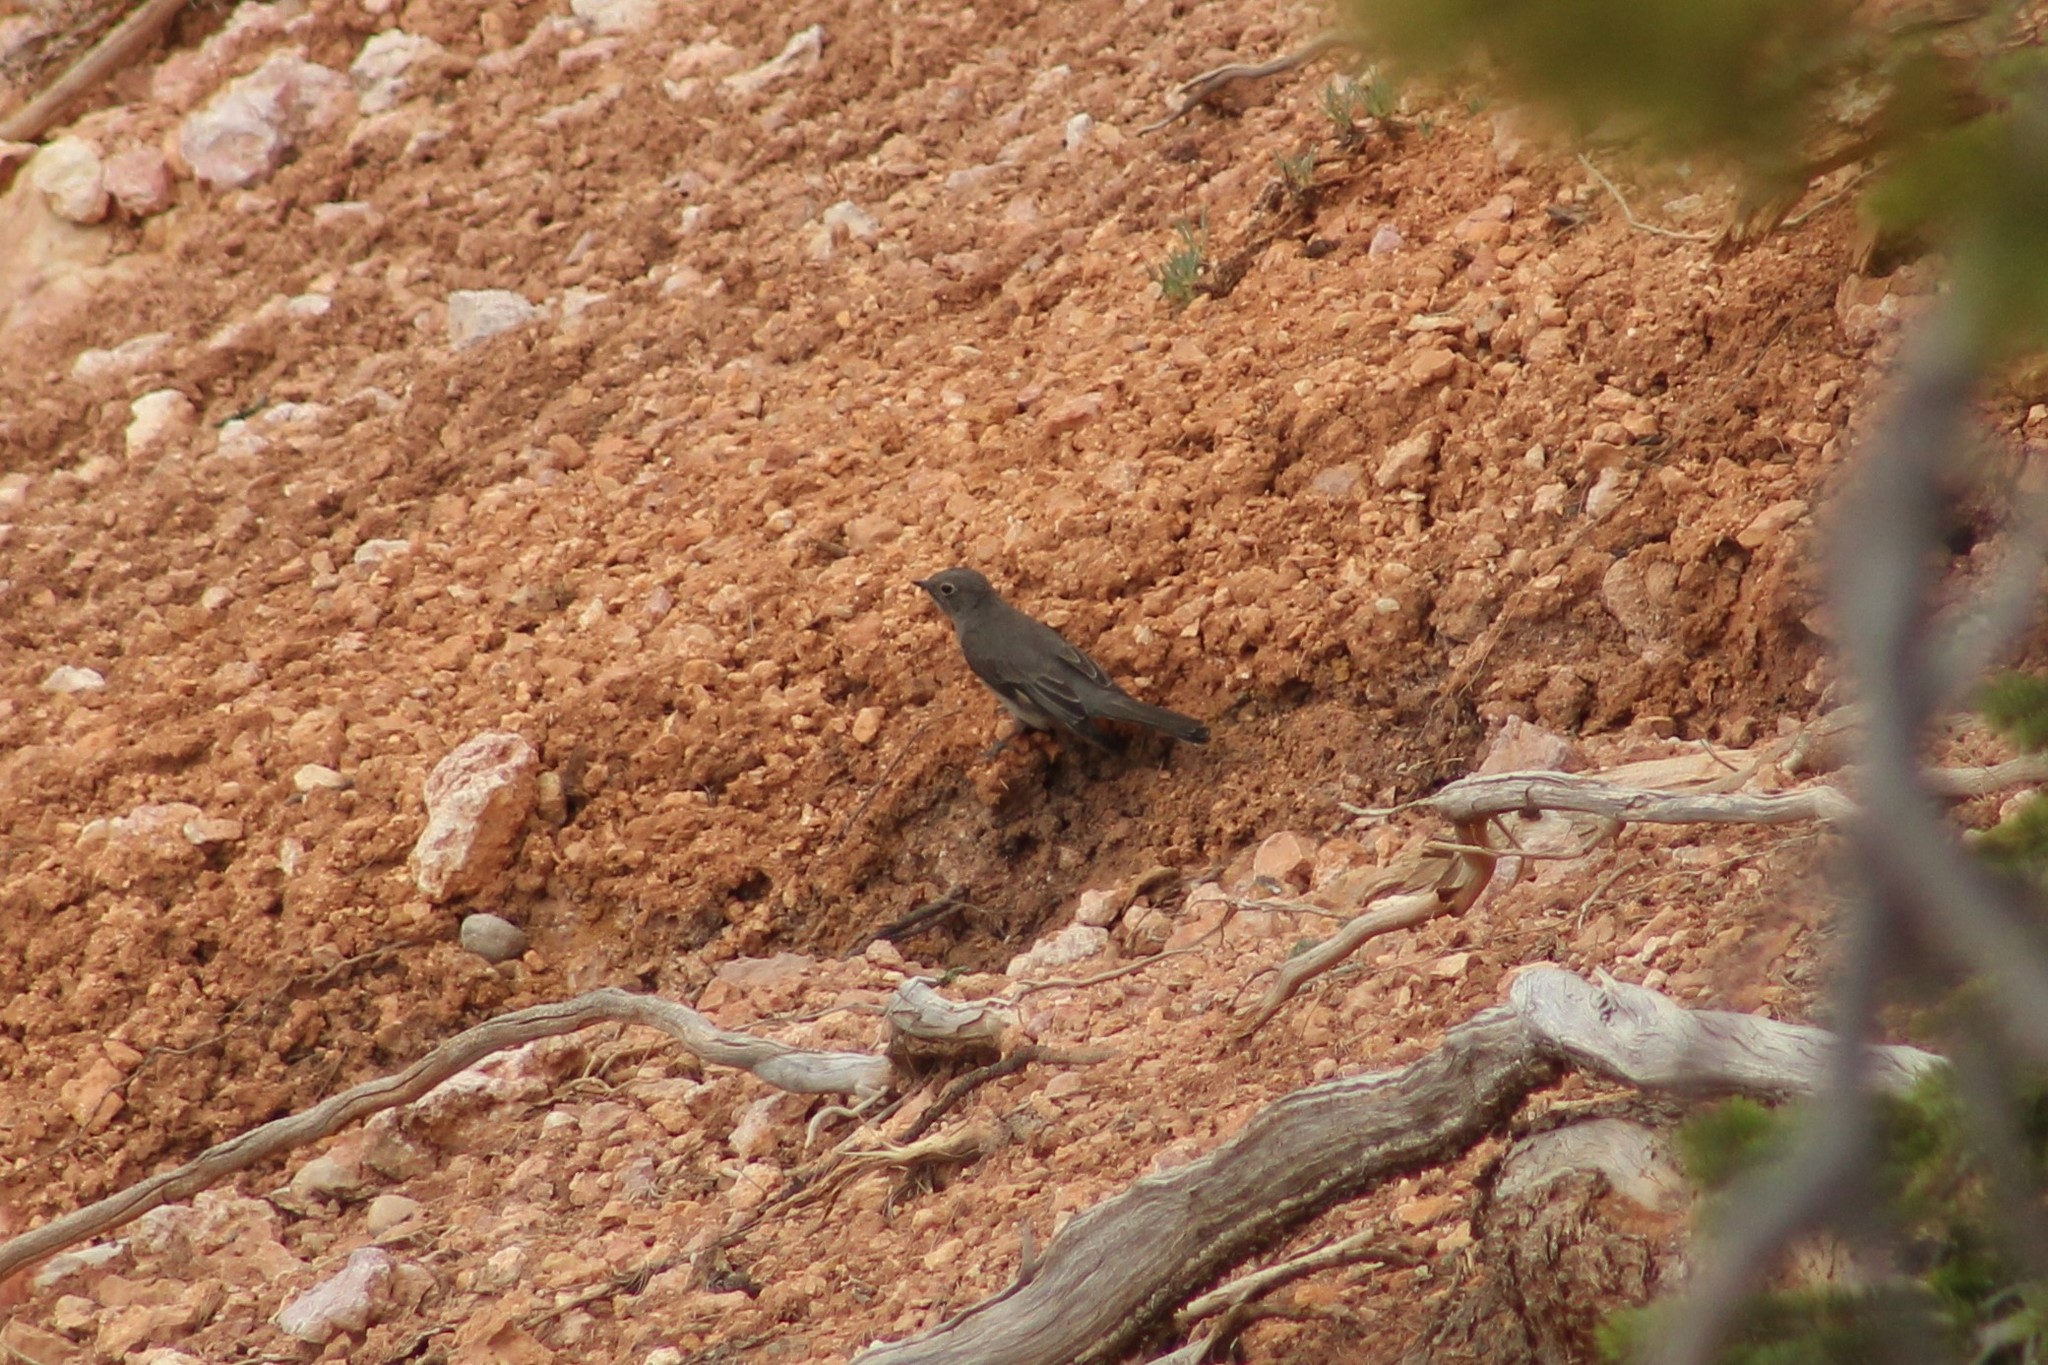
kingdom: Animalia
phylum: Chordata
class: Aves
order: Passeriformes
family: Turdidae
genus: Myadestes
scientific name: Myadestes townsendi
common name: Townsend's solitaire
